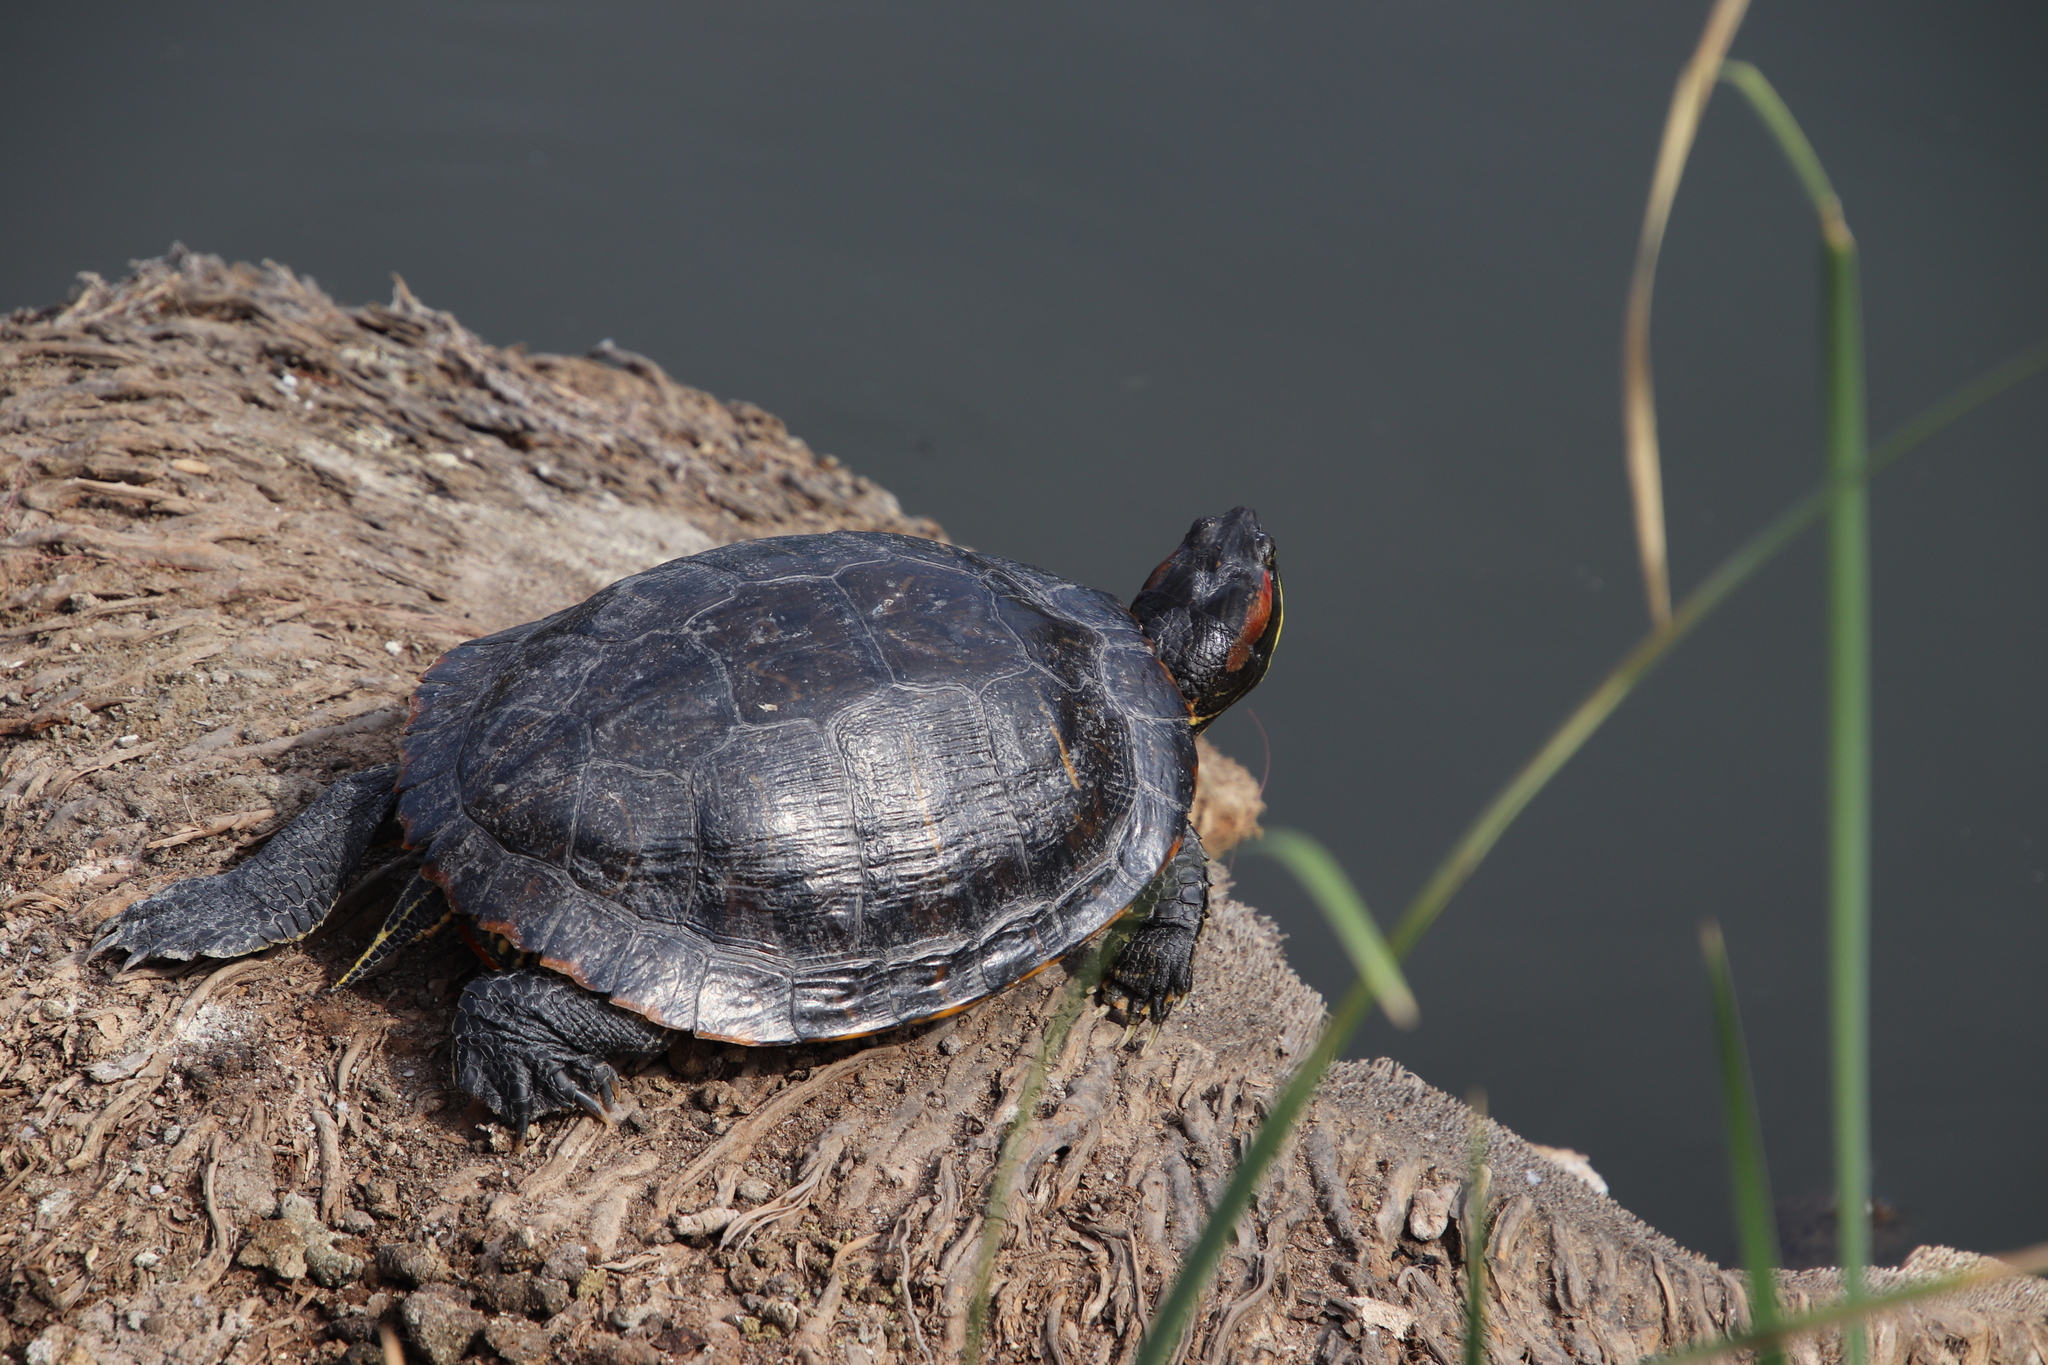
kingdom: Animalia
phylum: Chordata
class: Testudines
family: Emydidae
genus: Trachemys
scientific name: Trachemys scripta
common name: Slider
